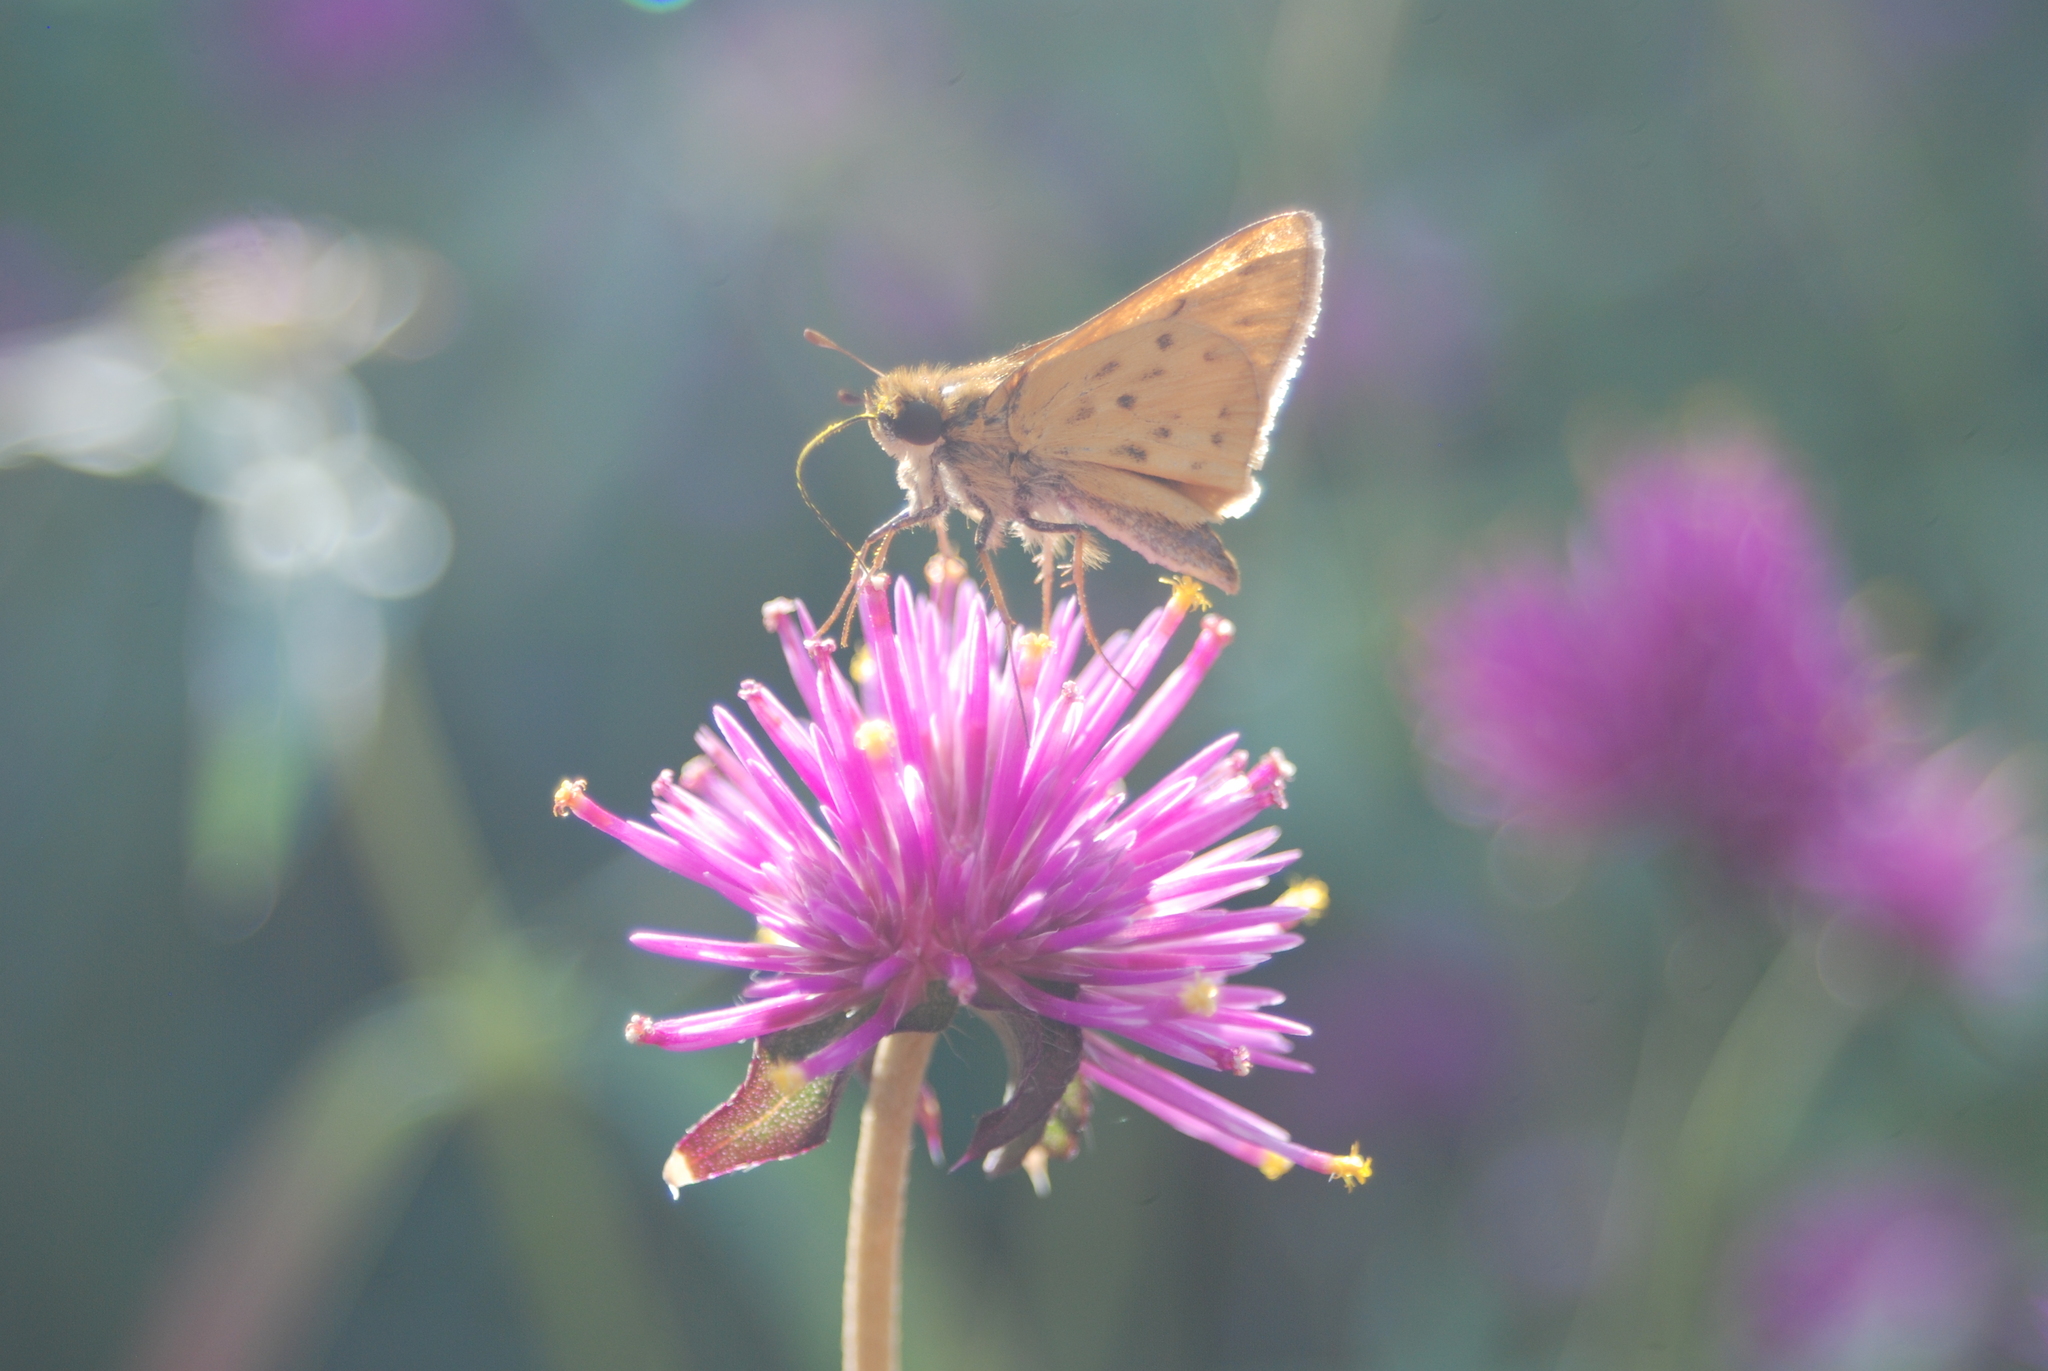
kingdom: Animalia
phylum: Arthropoda
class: Insecta
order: Lepidoptera
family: Hesperiidae
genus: Hylephila
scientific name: Hylephila phyleus
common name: Fiery skipper
